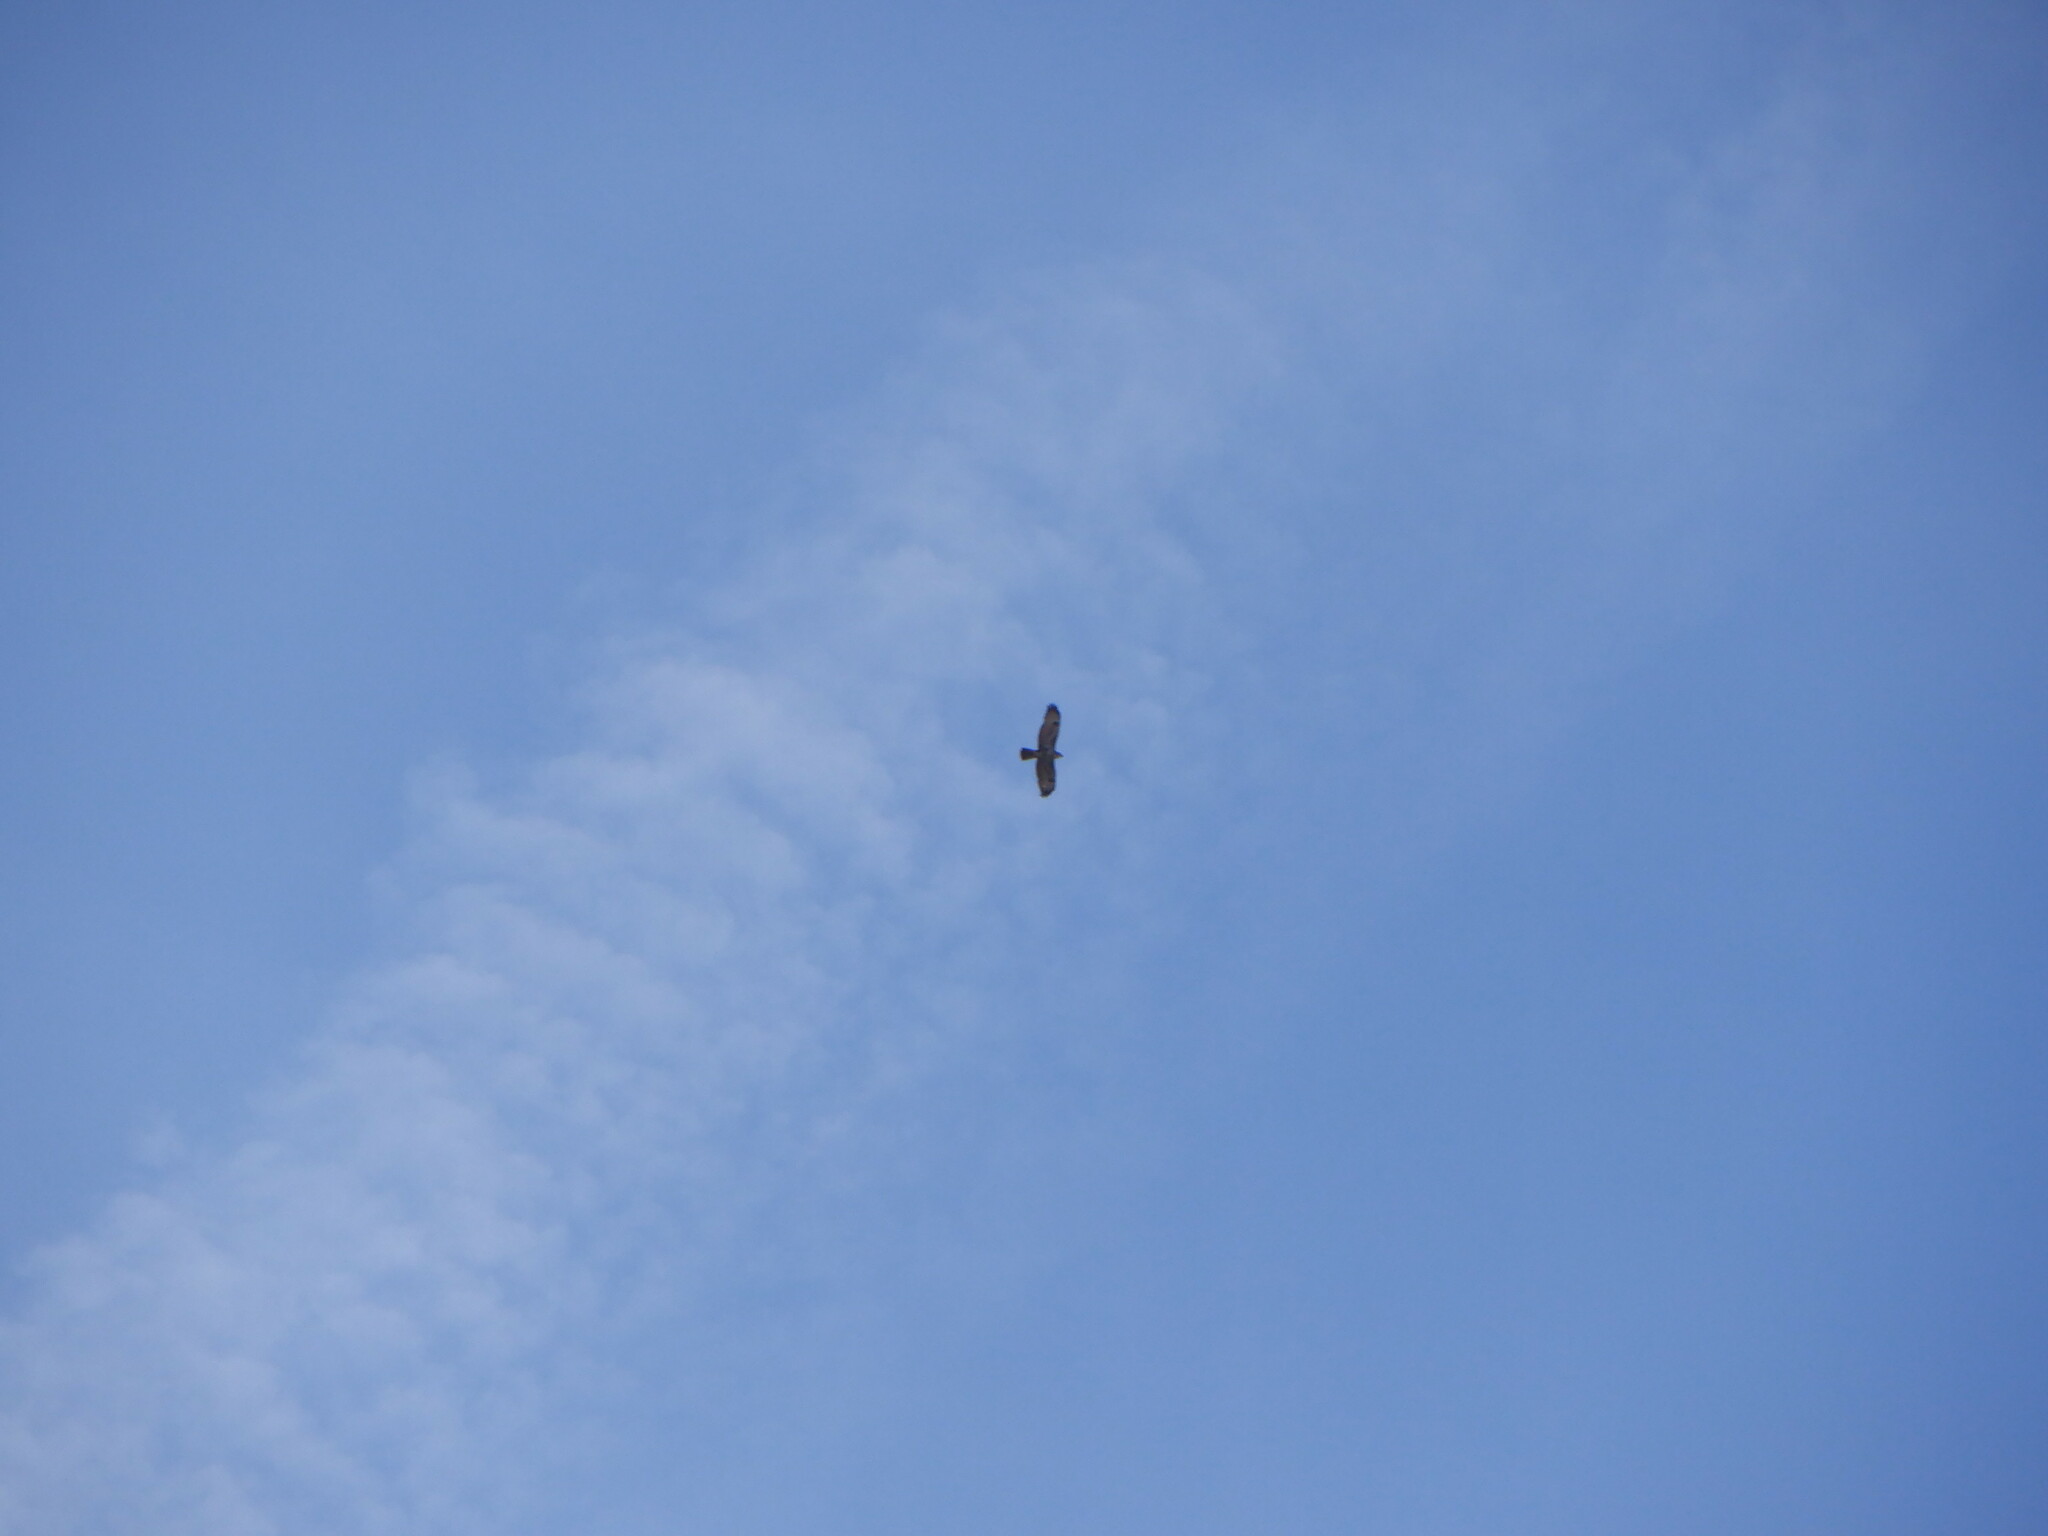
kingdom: Animalia
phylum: Chordata
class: Aves
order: Accipitriformes
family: Accipitridae
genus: Buteo
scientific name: Buteo buteo
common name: Common buzzard
